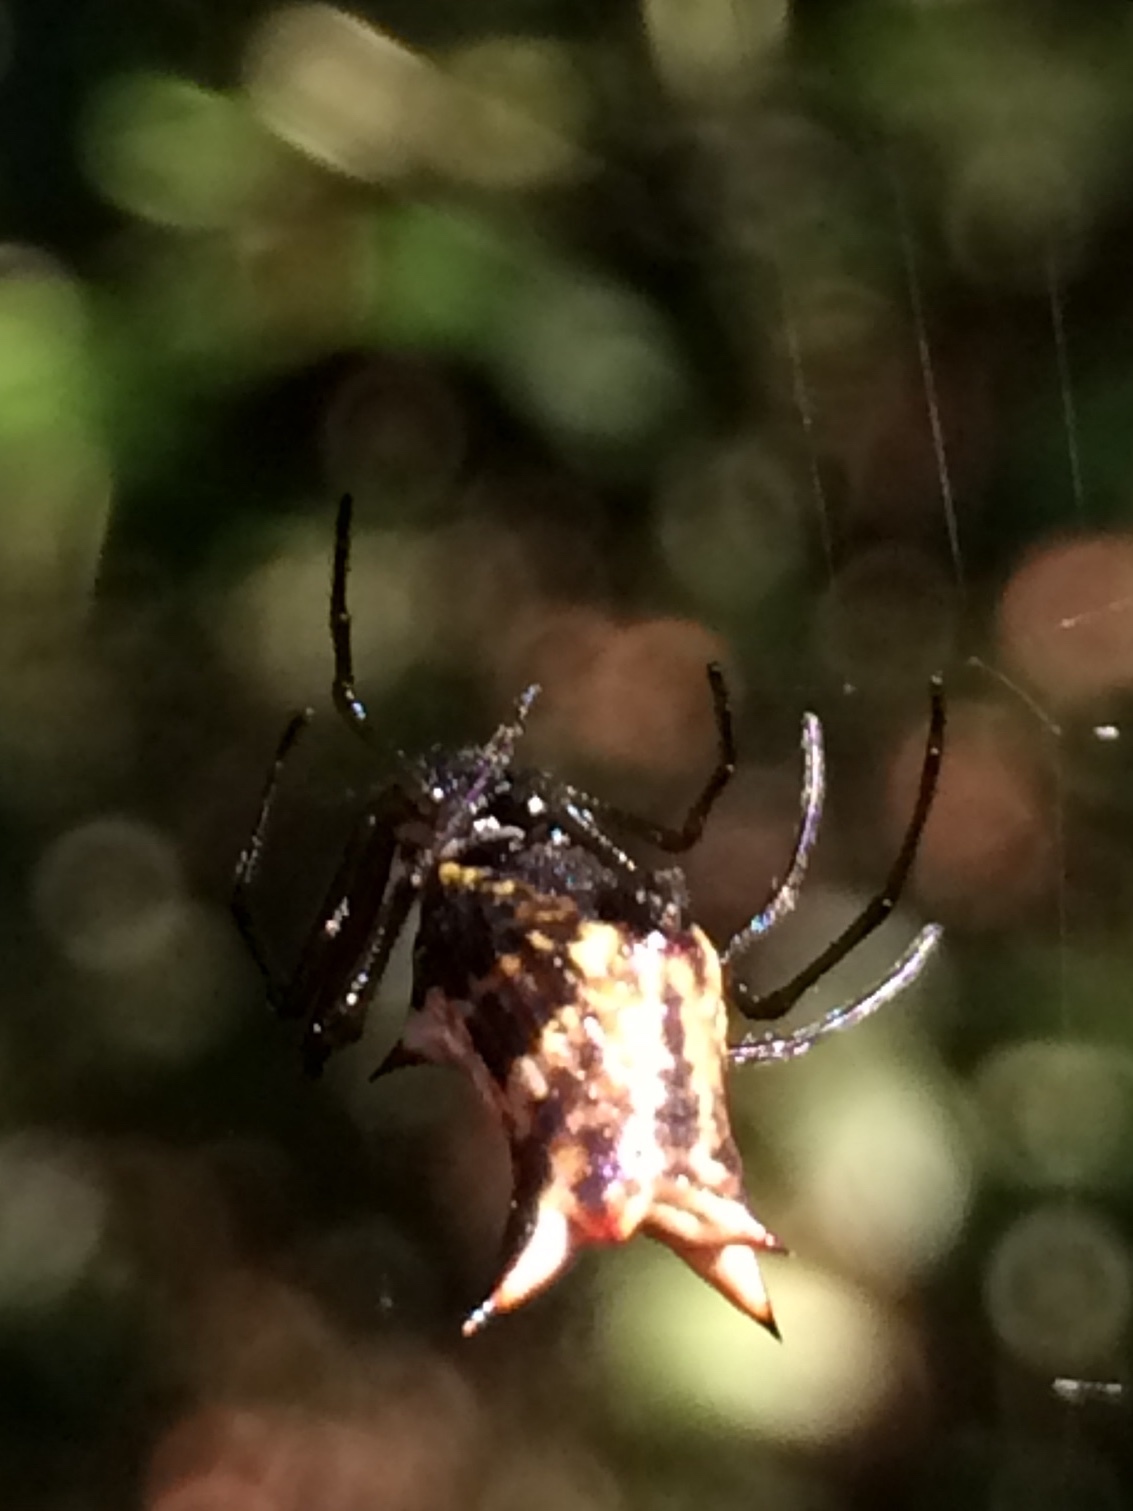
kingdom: Animalia
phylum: Arthropoda
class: Arachnida
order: Araneae
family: Araneidae
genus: Micrathena
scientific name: Micrathena nigrichelis
